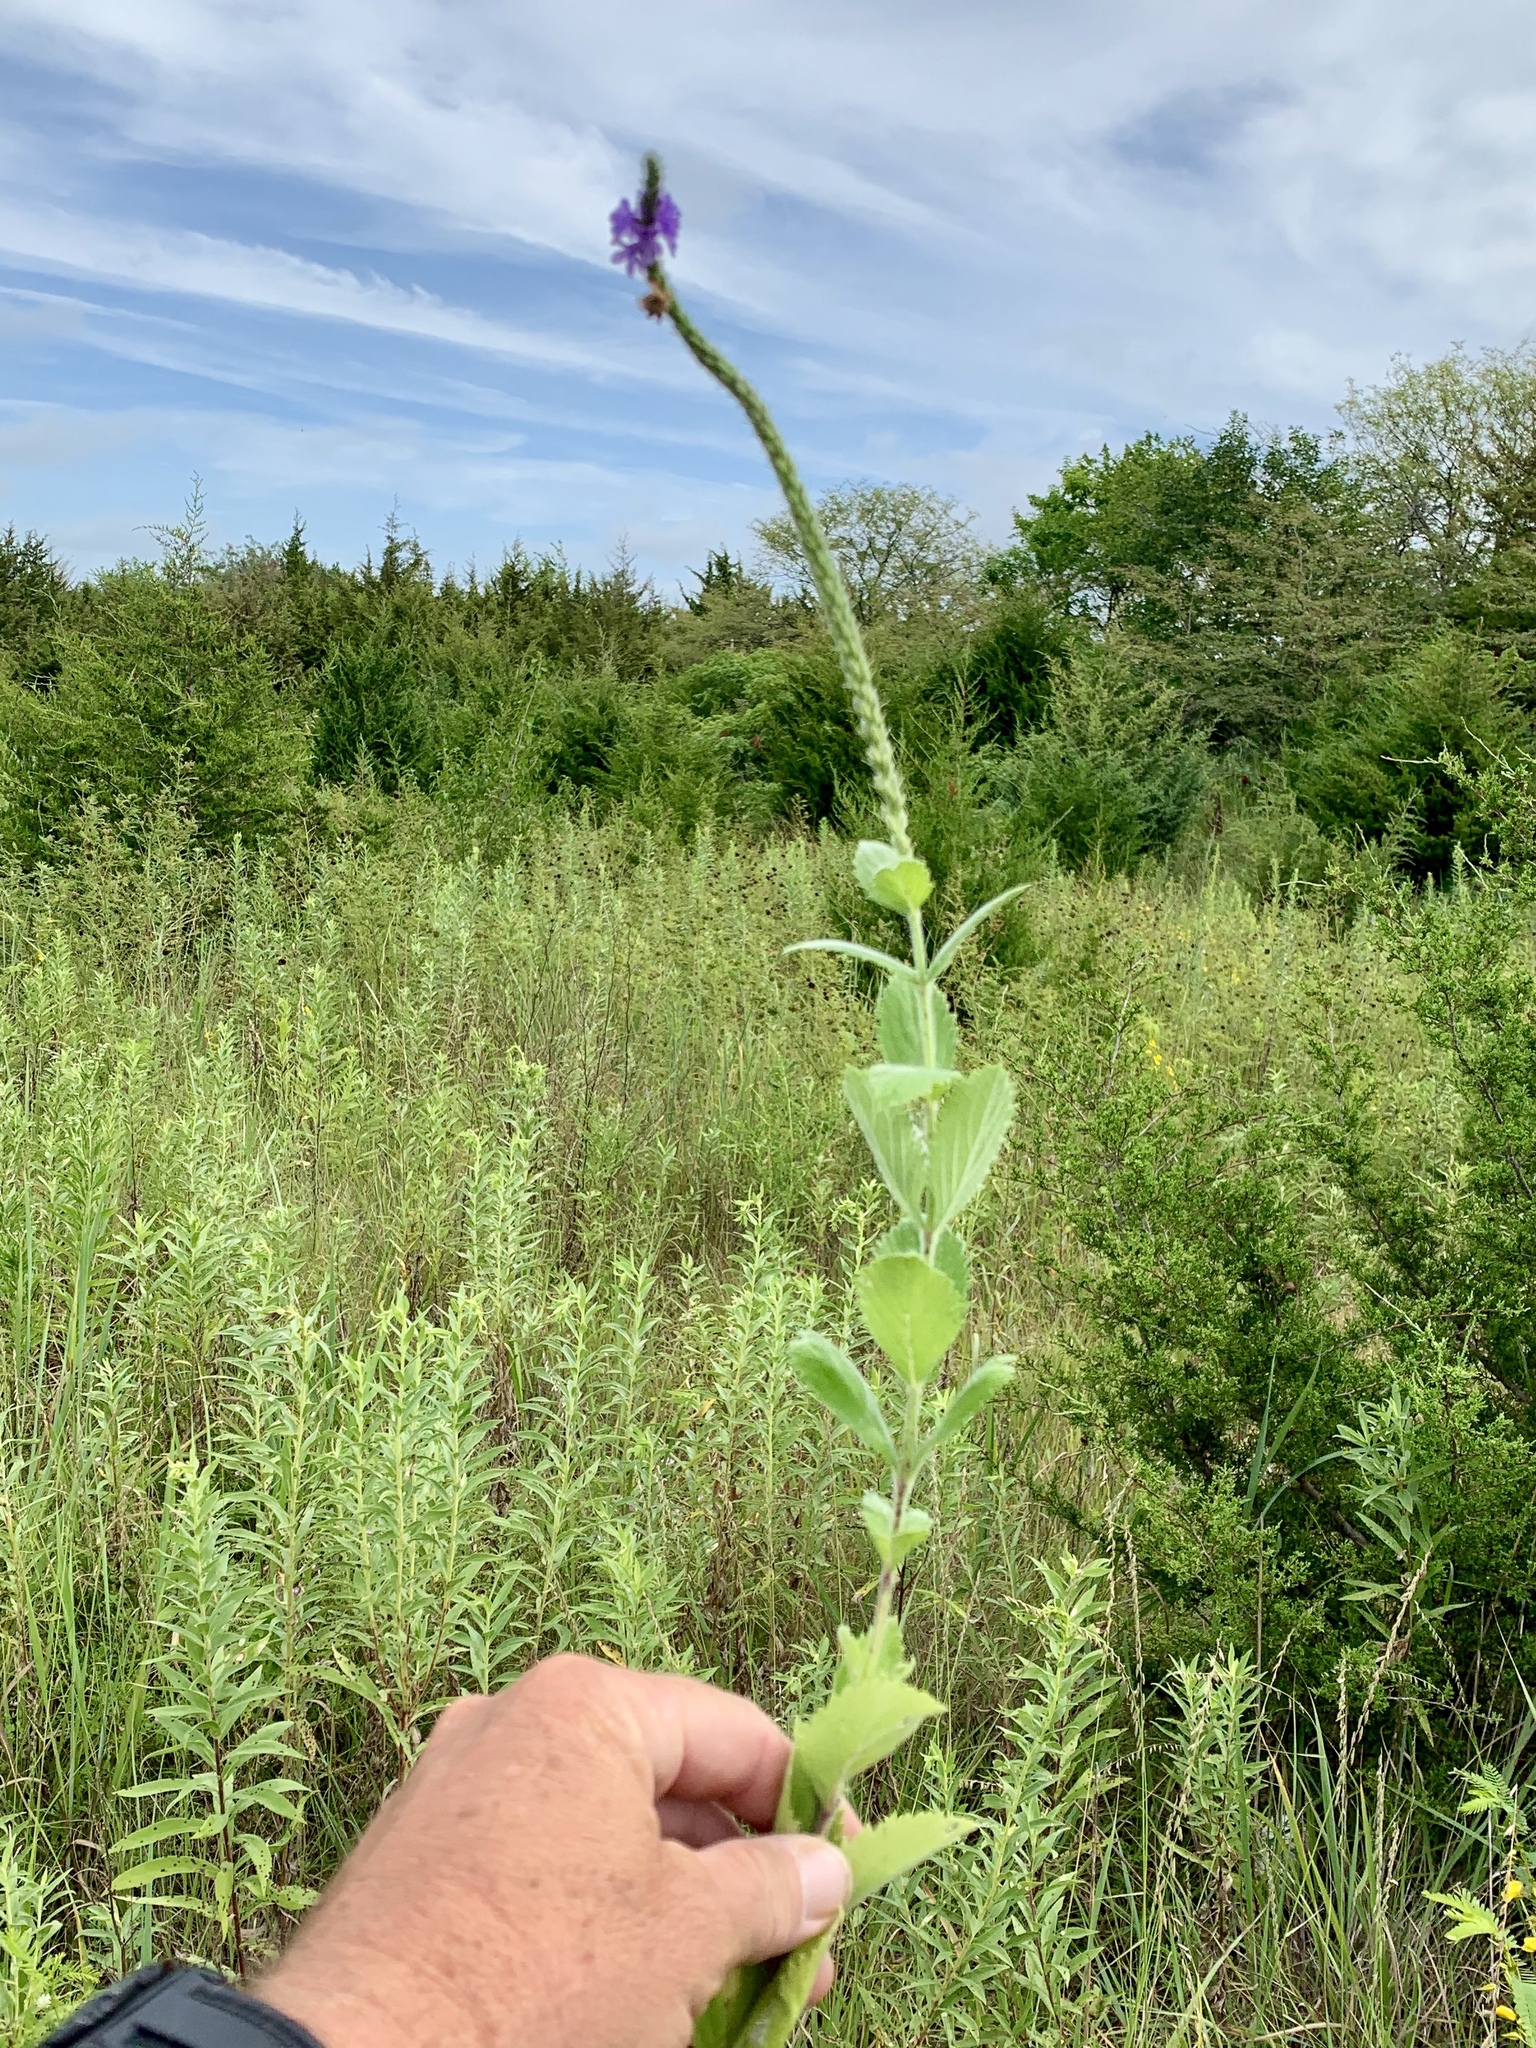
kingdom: Plantae
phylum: Tracheophyta
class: Magnoliopsida
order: Lamiales
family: Verbenaceae
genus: Verbena
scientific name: Verbena stricta
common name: Hoary vervain
